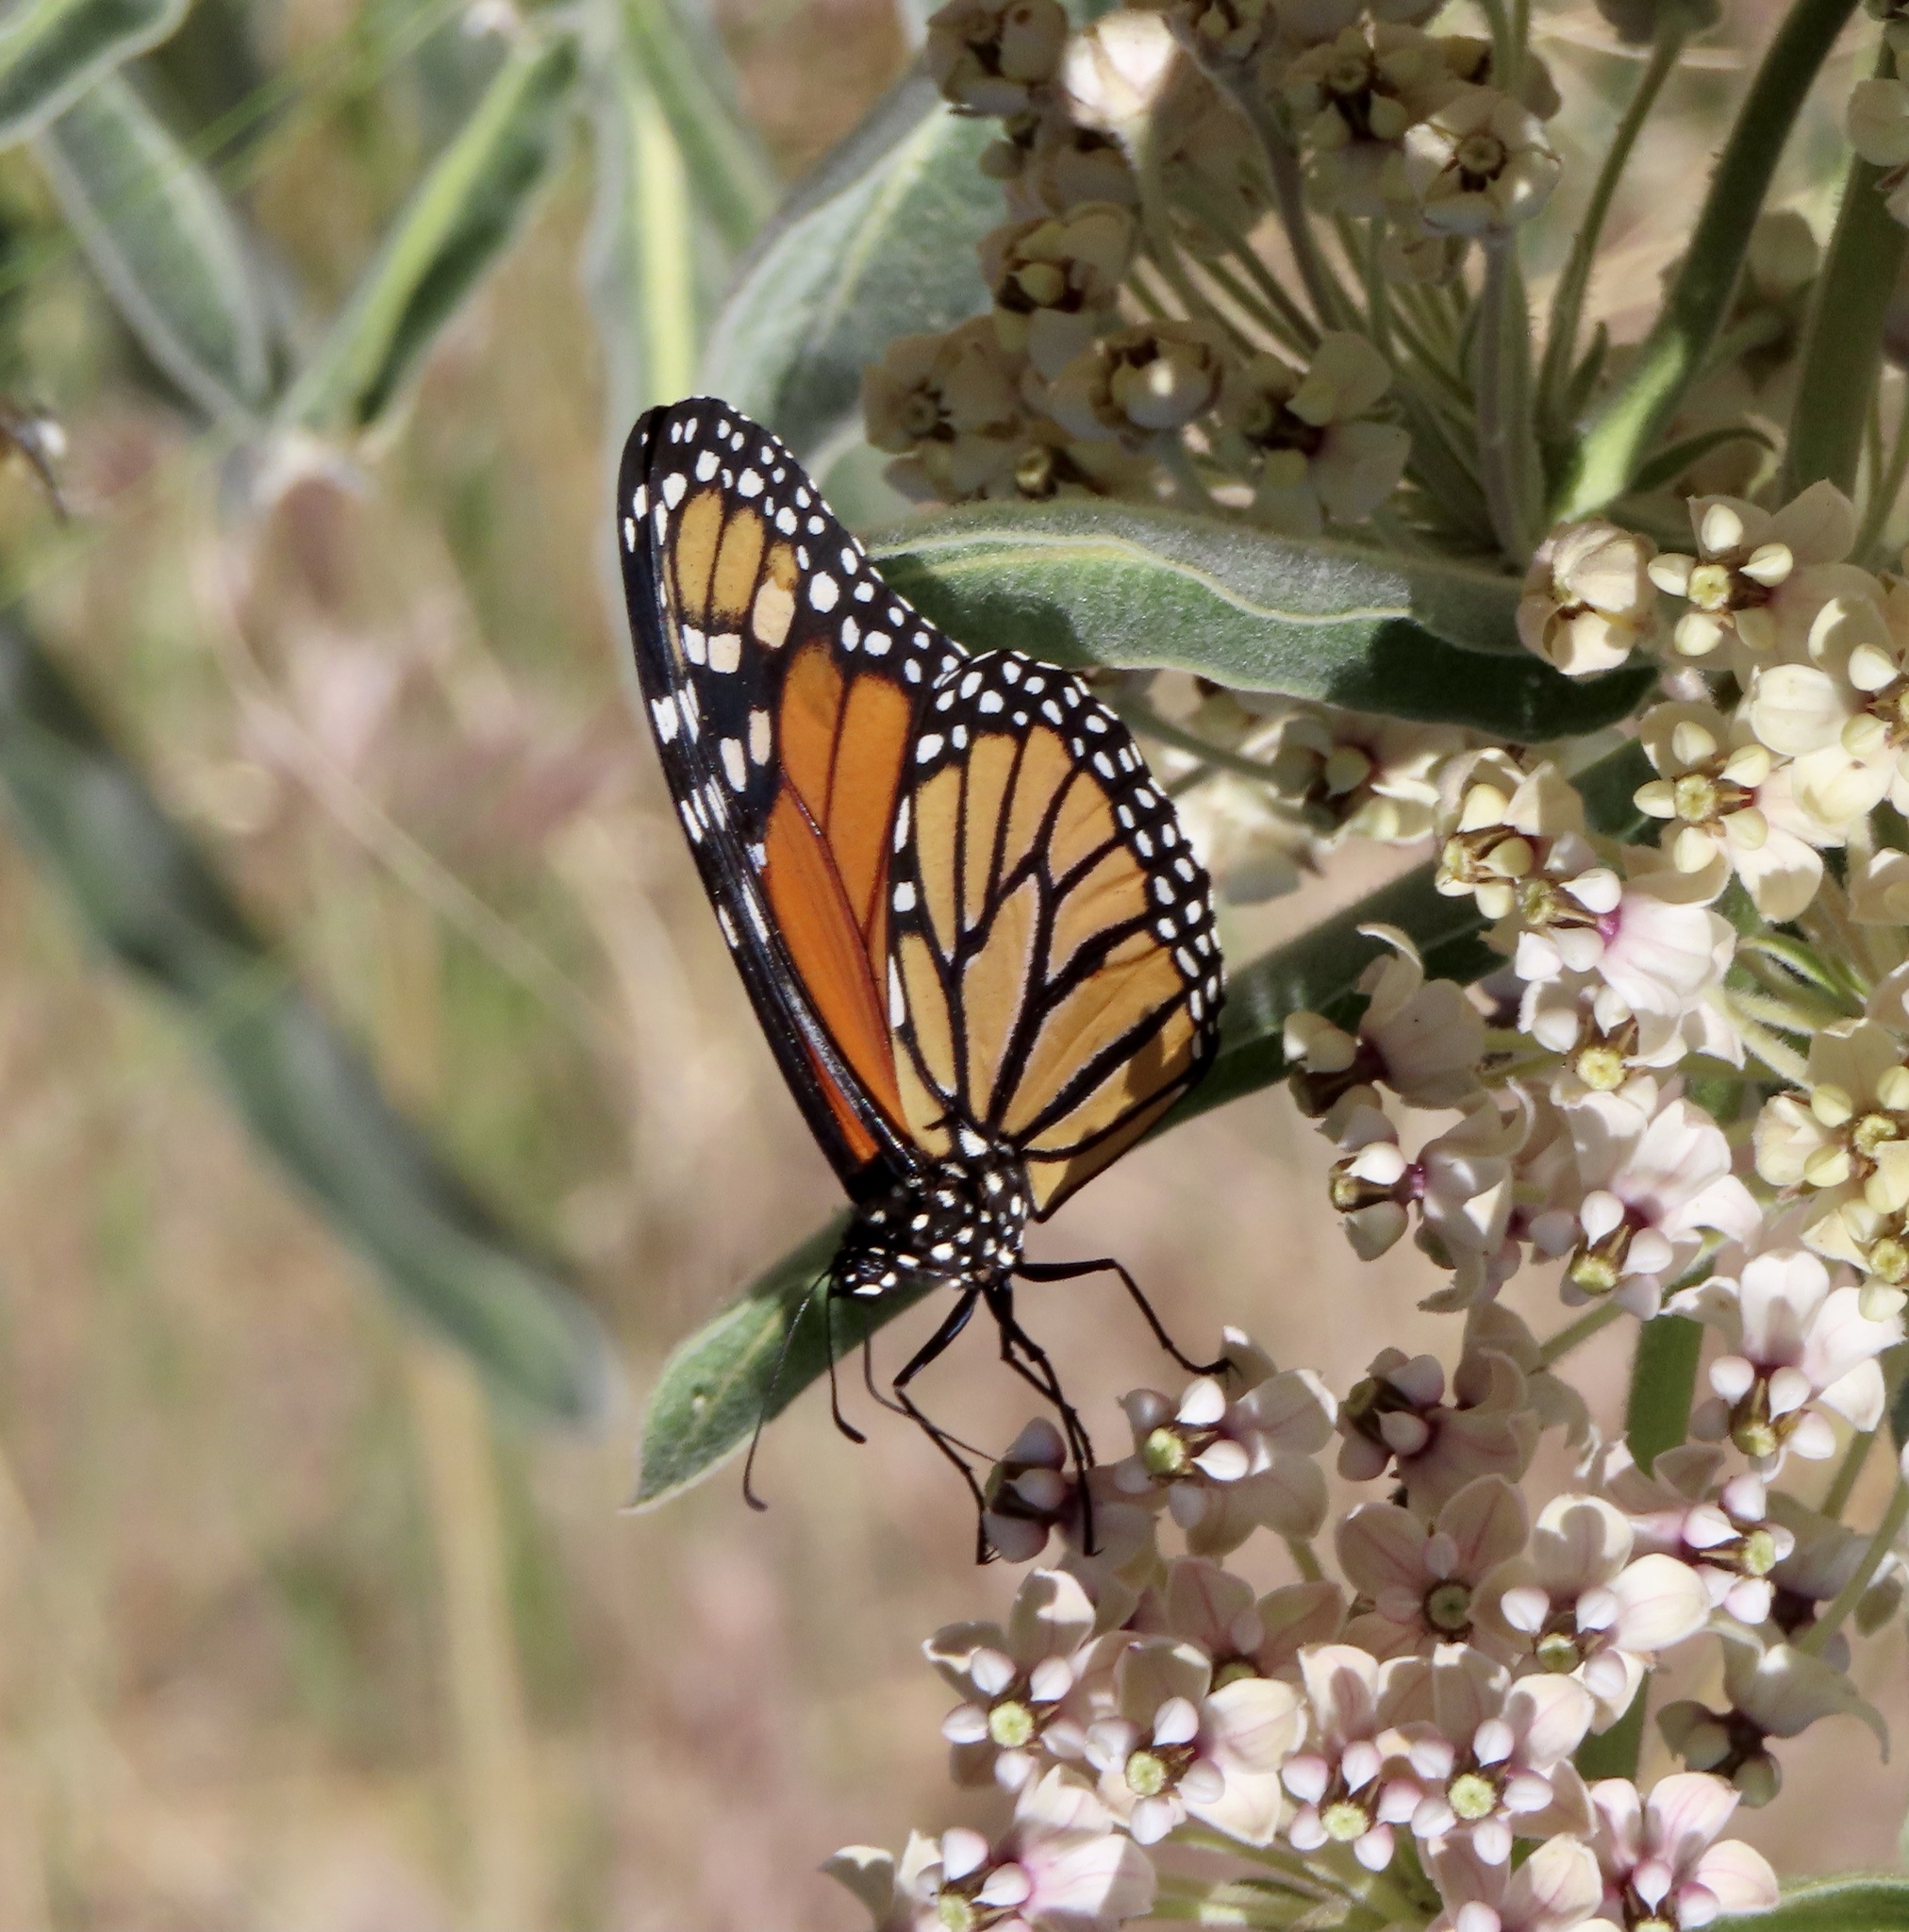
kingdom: Animalia
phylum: Arthropoda
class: Insecta
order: Lepidoptera
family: Nymphalidae
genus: Danaus
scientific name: Danaus plexippus
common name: Monarch
